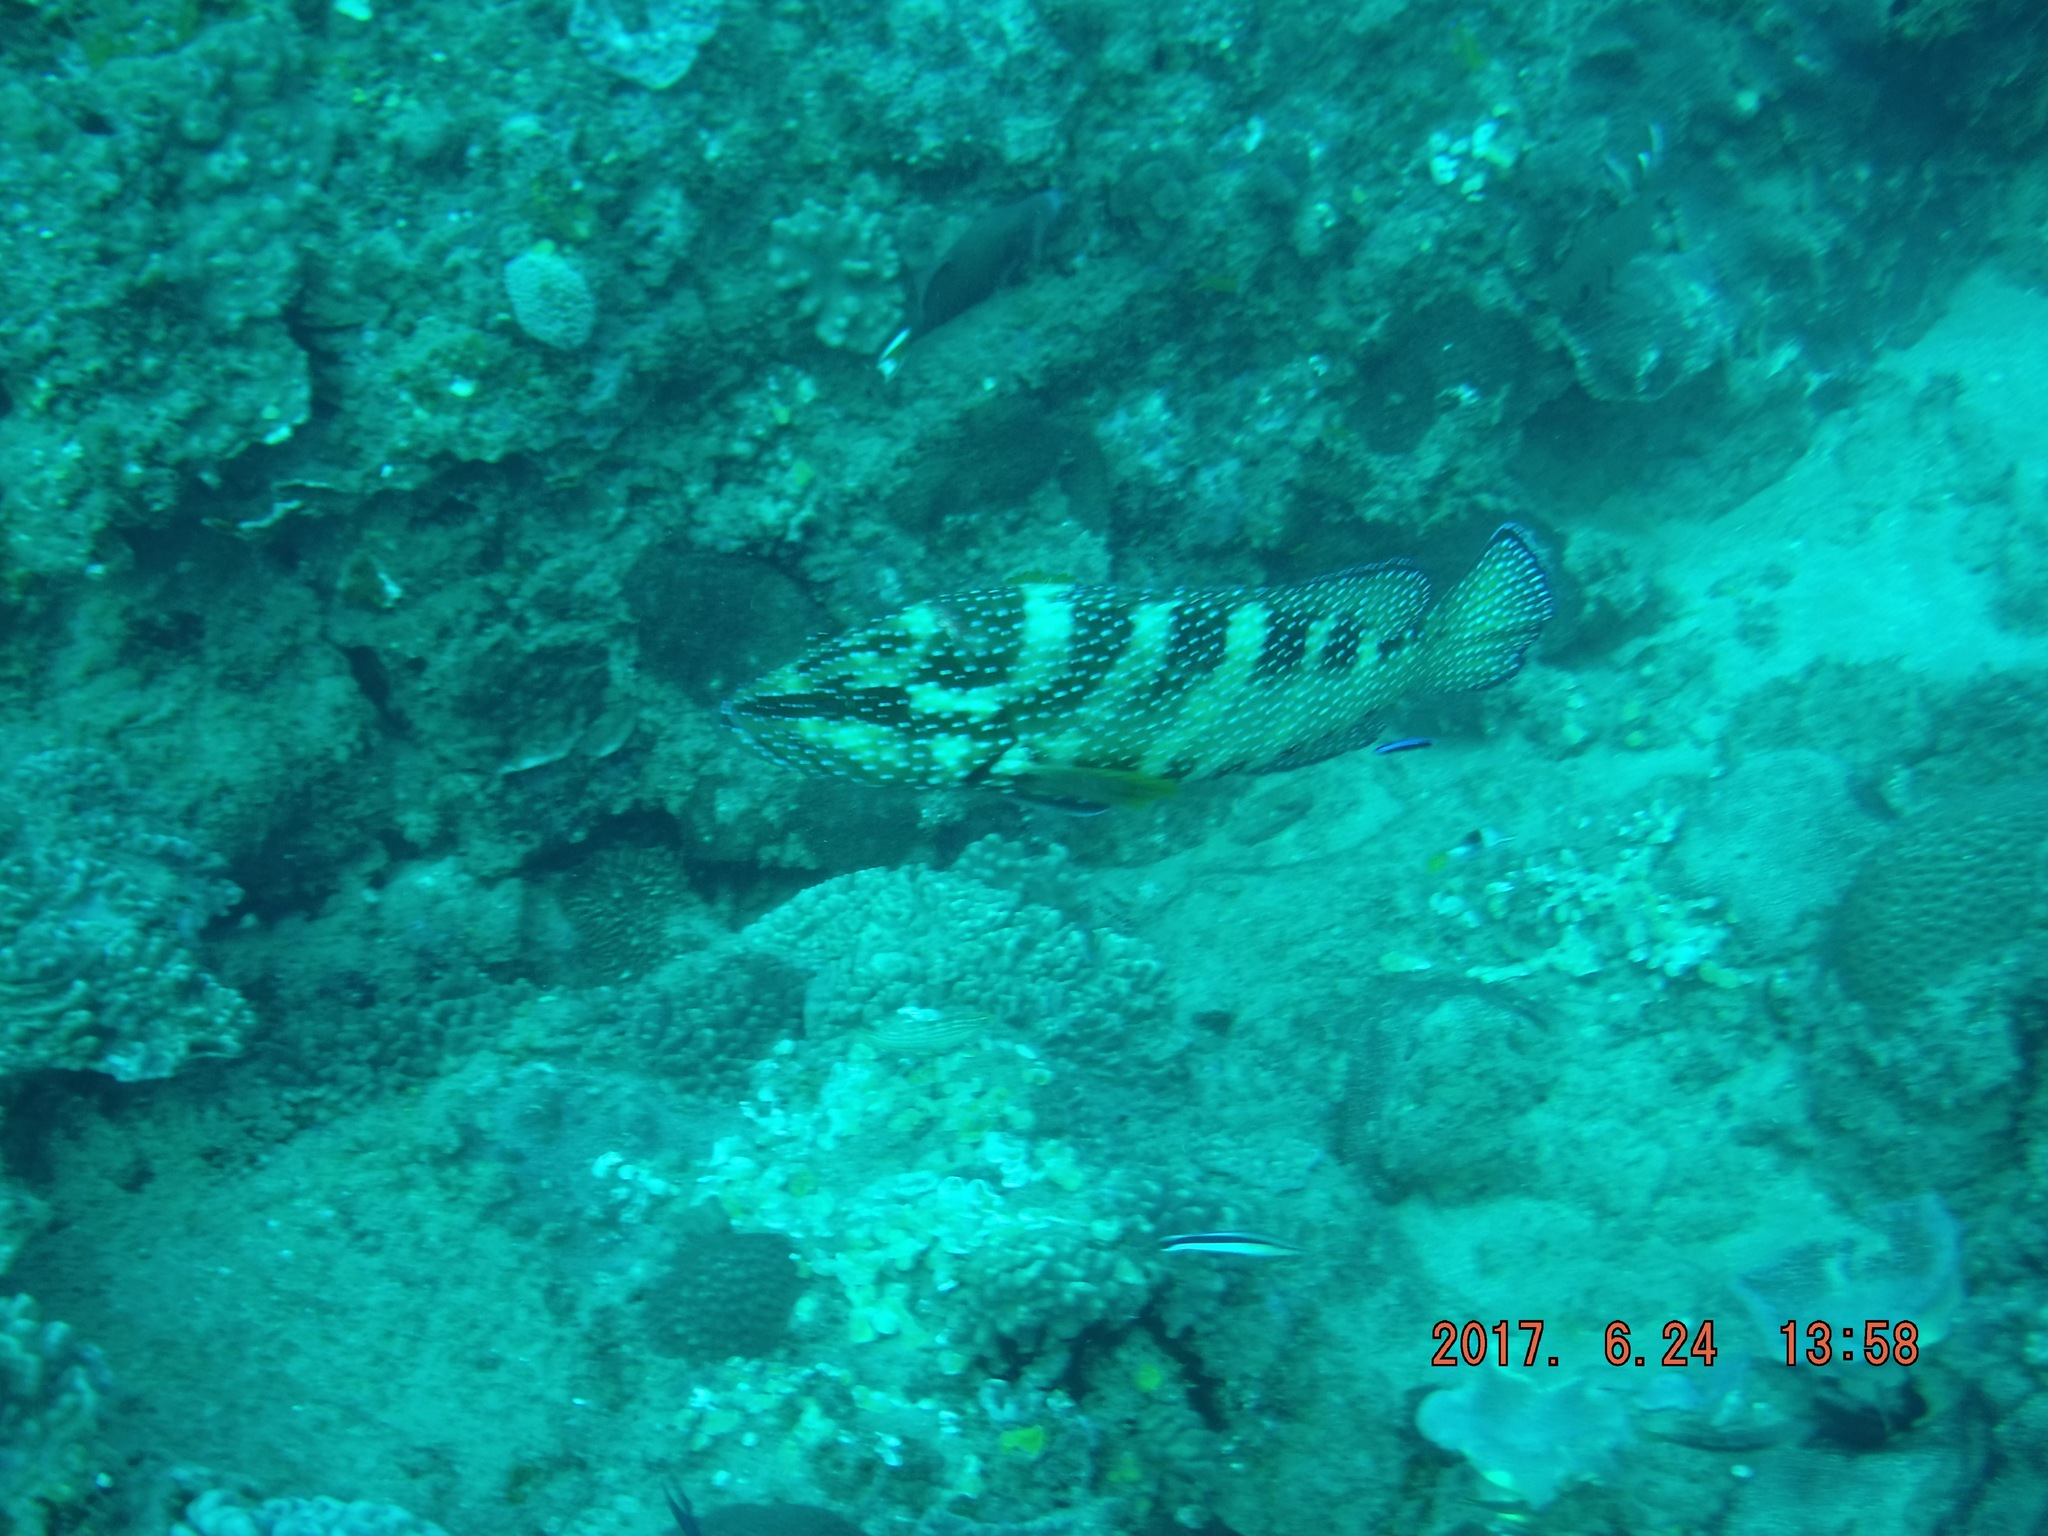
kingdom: Animalia
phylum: Chordata
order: Perciformes
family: Serranidae
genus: Cephalopholis
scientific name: Cephalopholis miniata
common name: Coral hind
